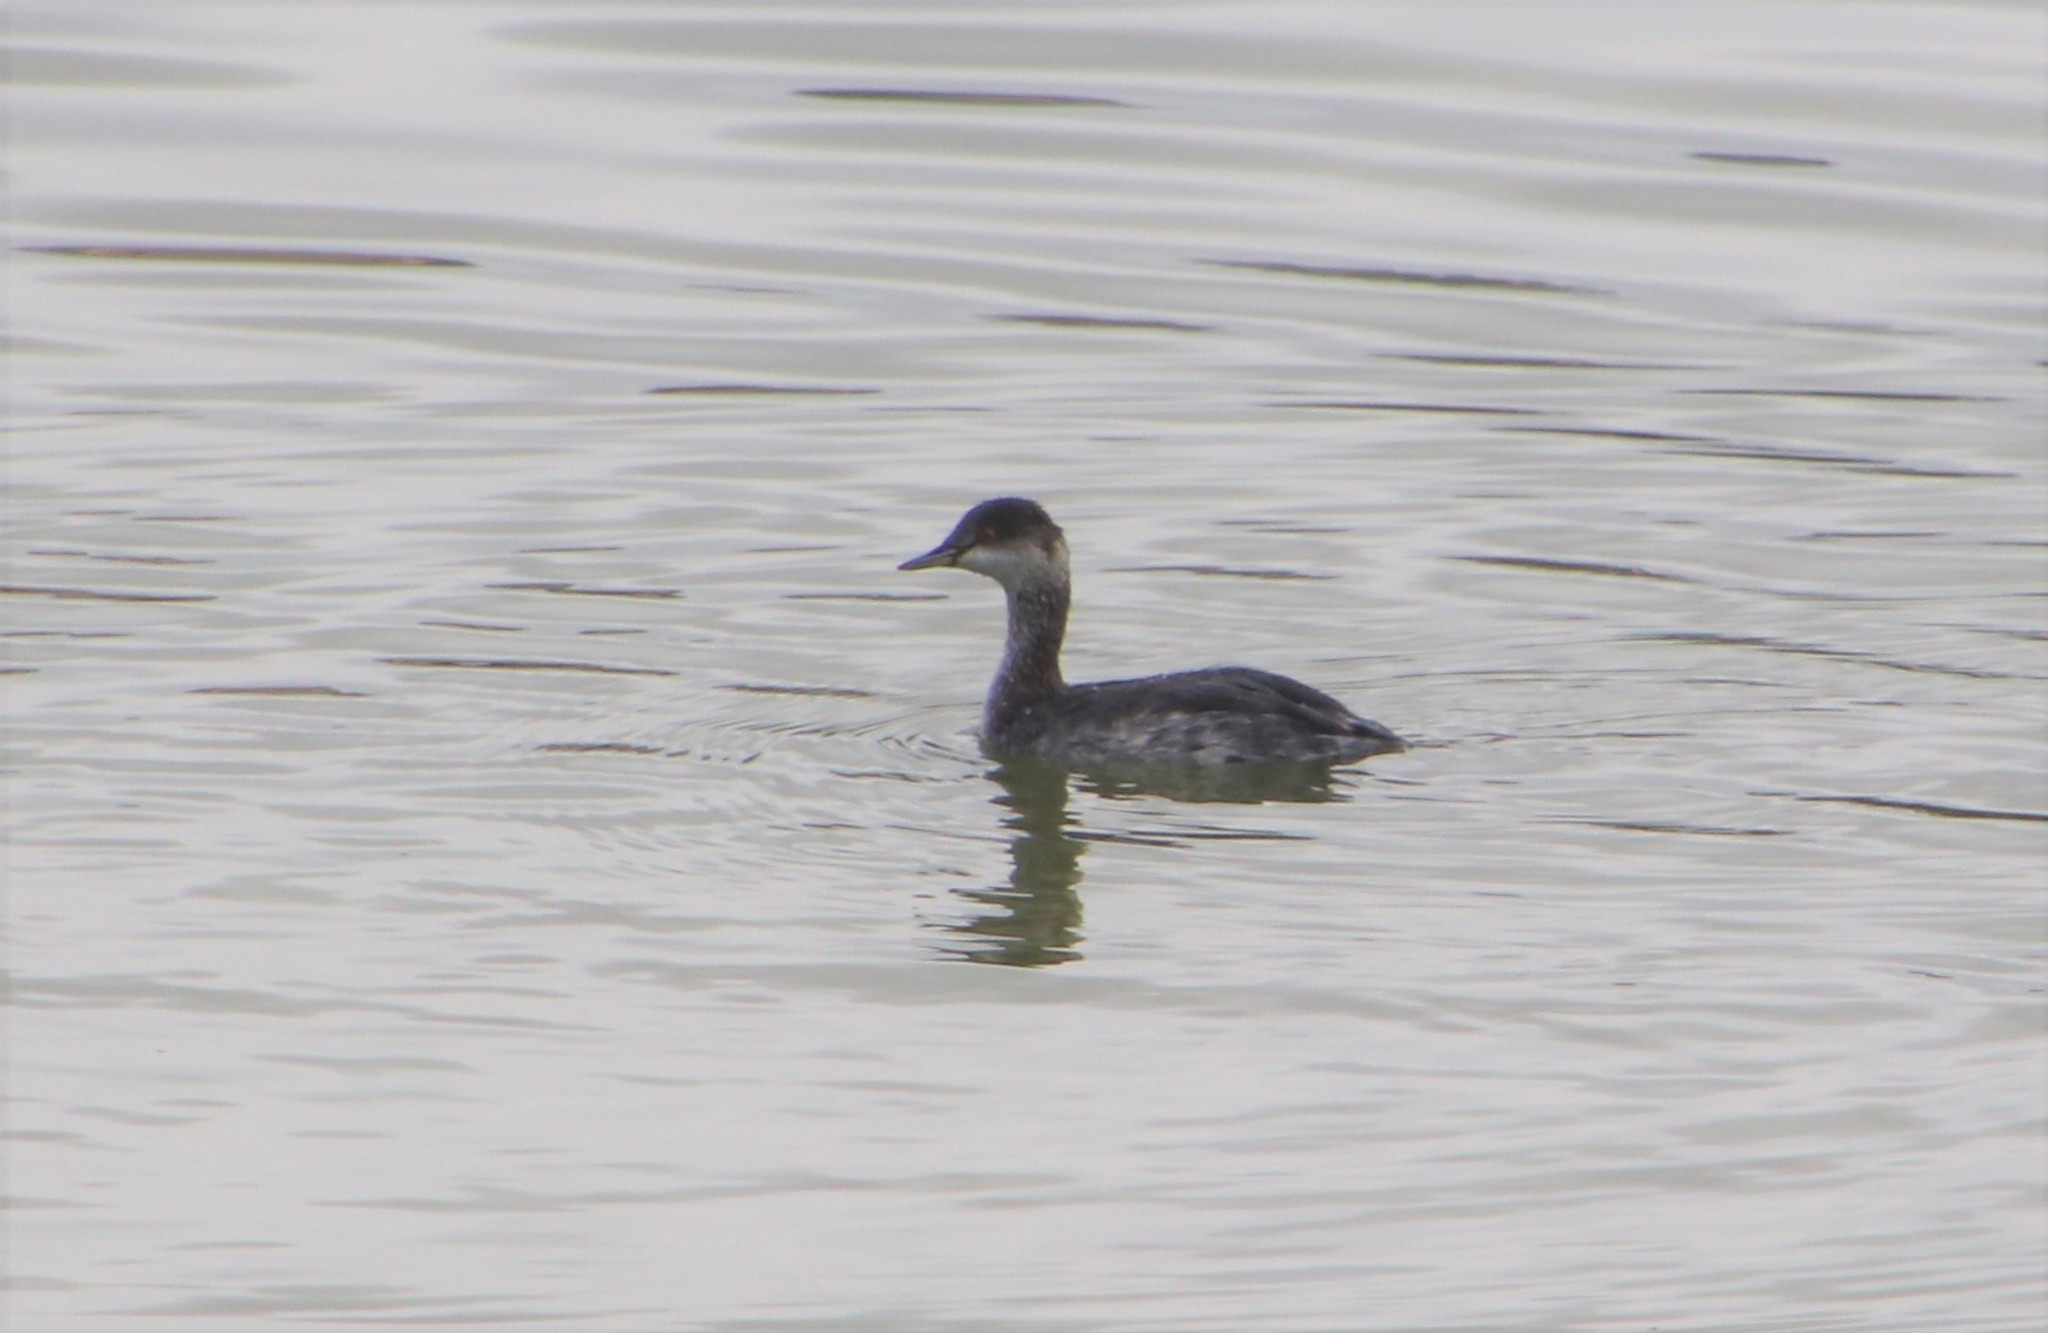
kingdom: Animalia
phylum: Chordata
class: Aves
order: Podicipediformes
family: Podicipedidae
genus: Podiceps
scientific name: Podiceps nigricollis
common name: Black-necked grebe
